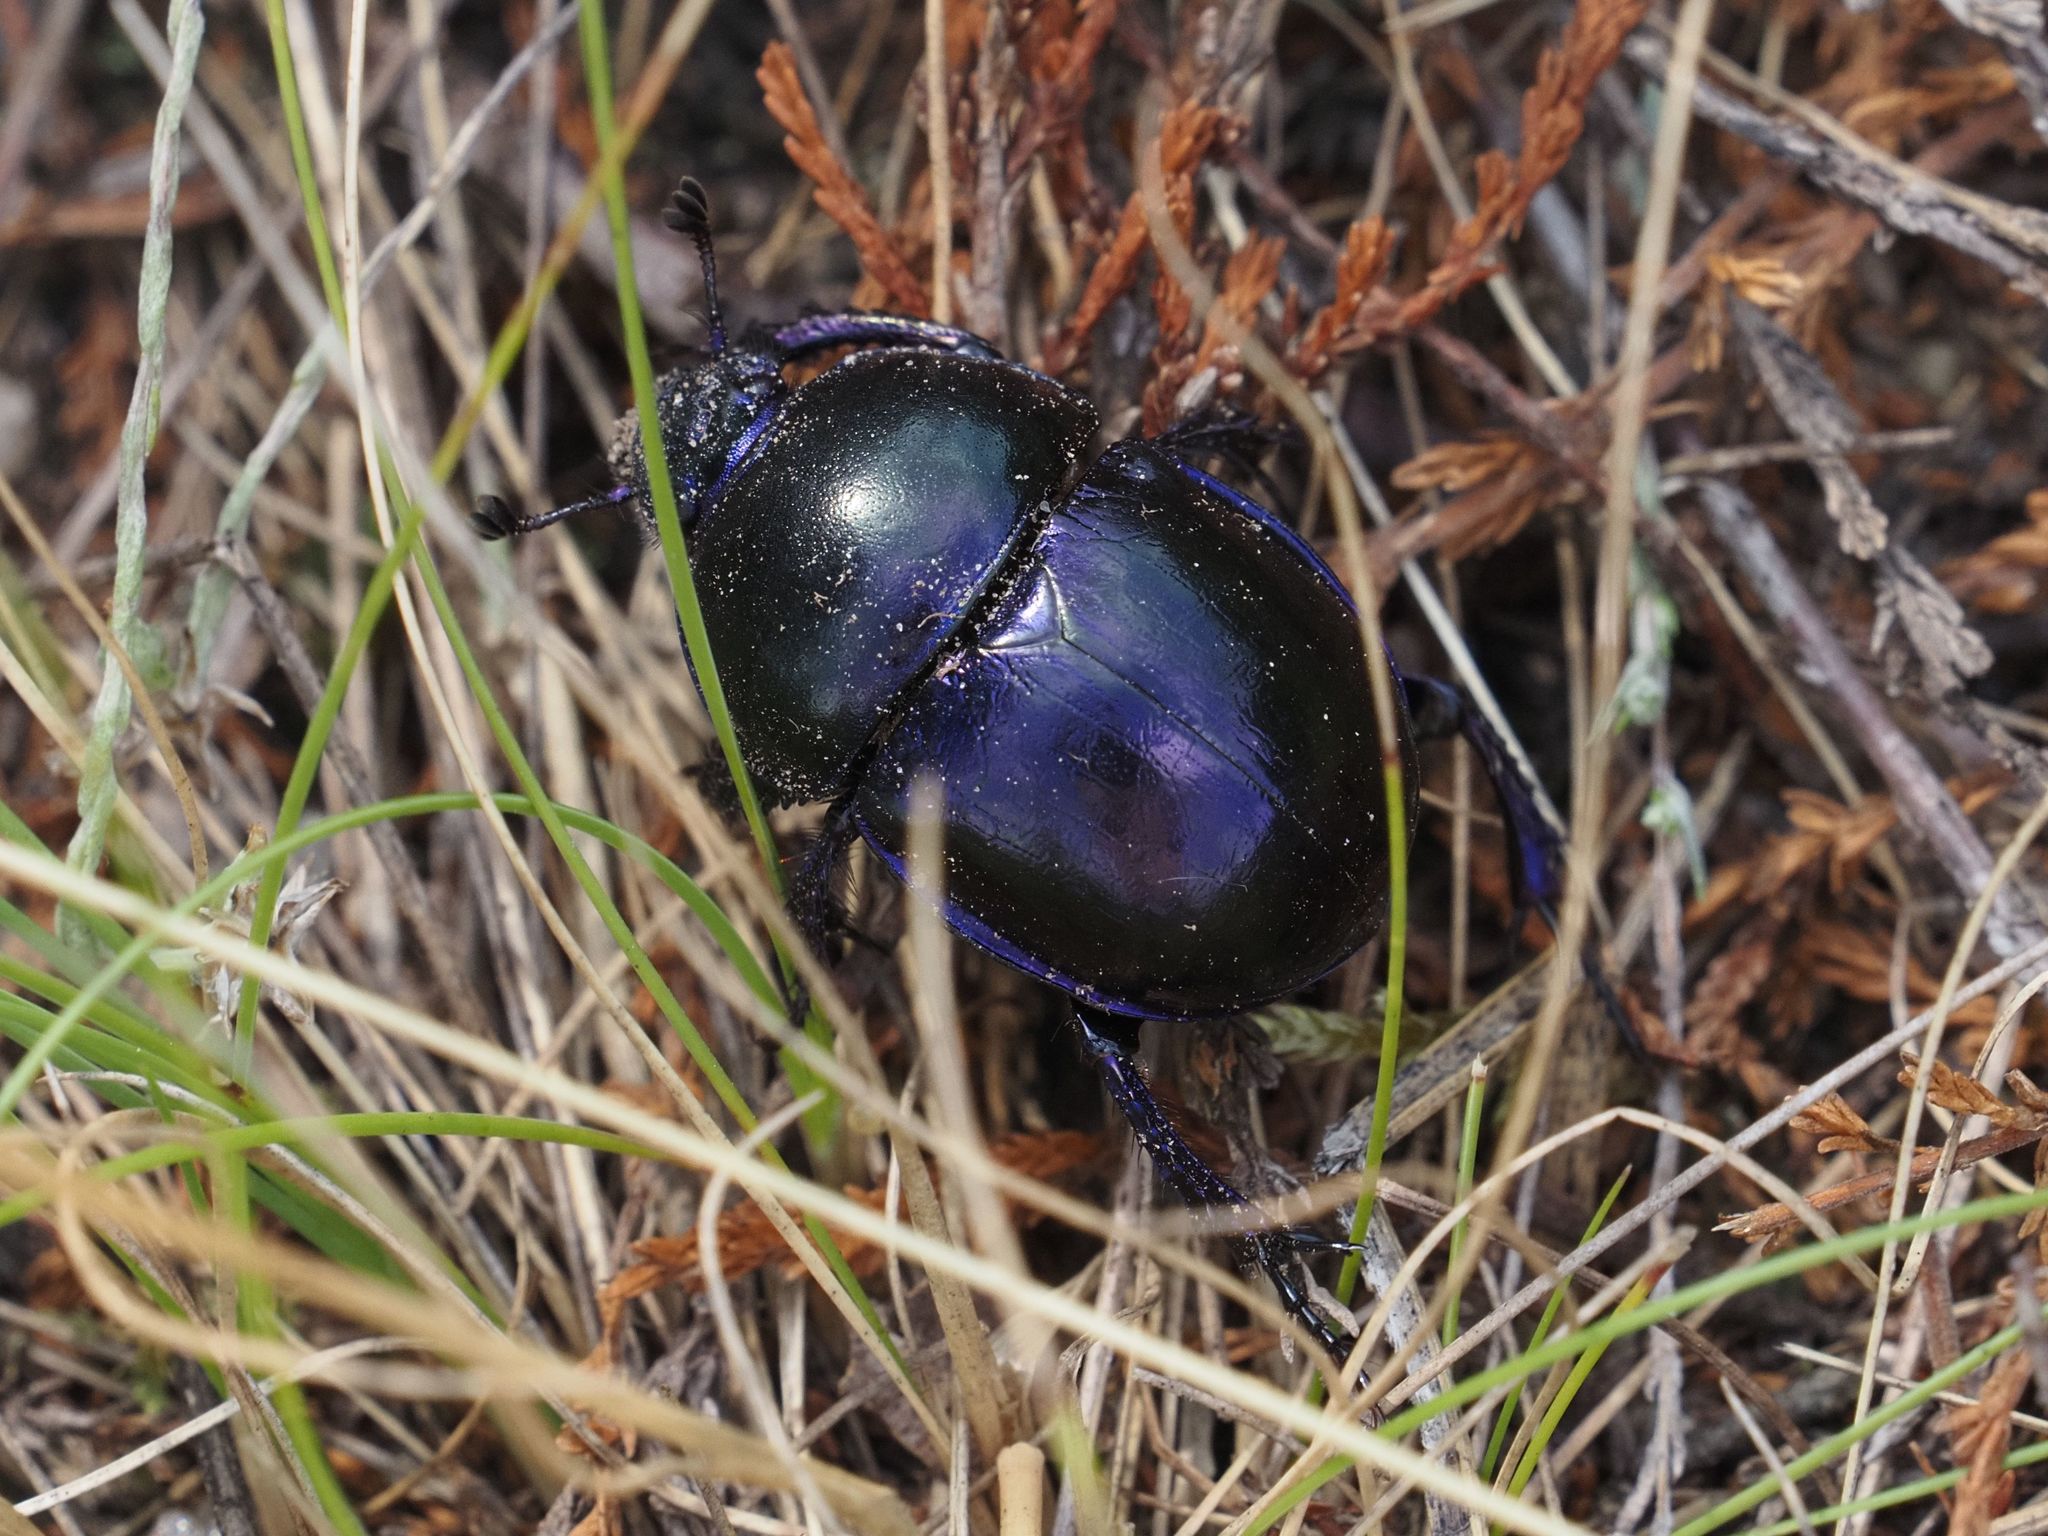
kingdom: Animalia
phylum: Arthropoda
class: Insecta
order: Coleoptera
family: Geotrupidae
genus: Trypocopris
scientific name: Trypocopris vernalis
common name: Spring dumbledor
